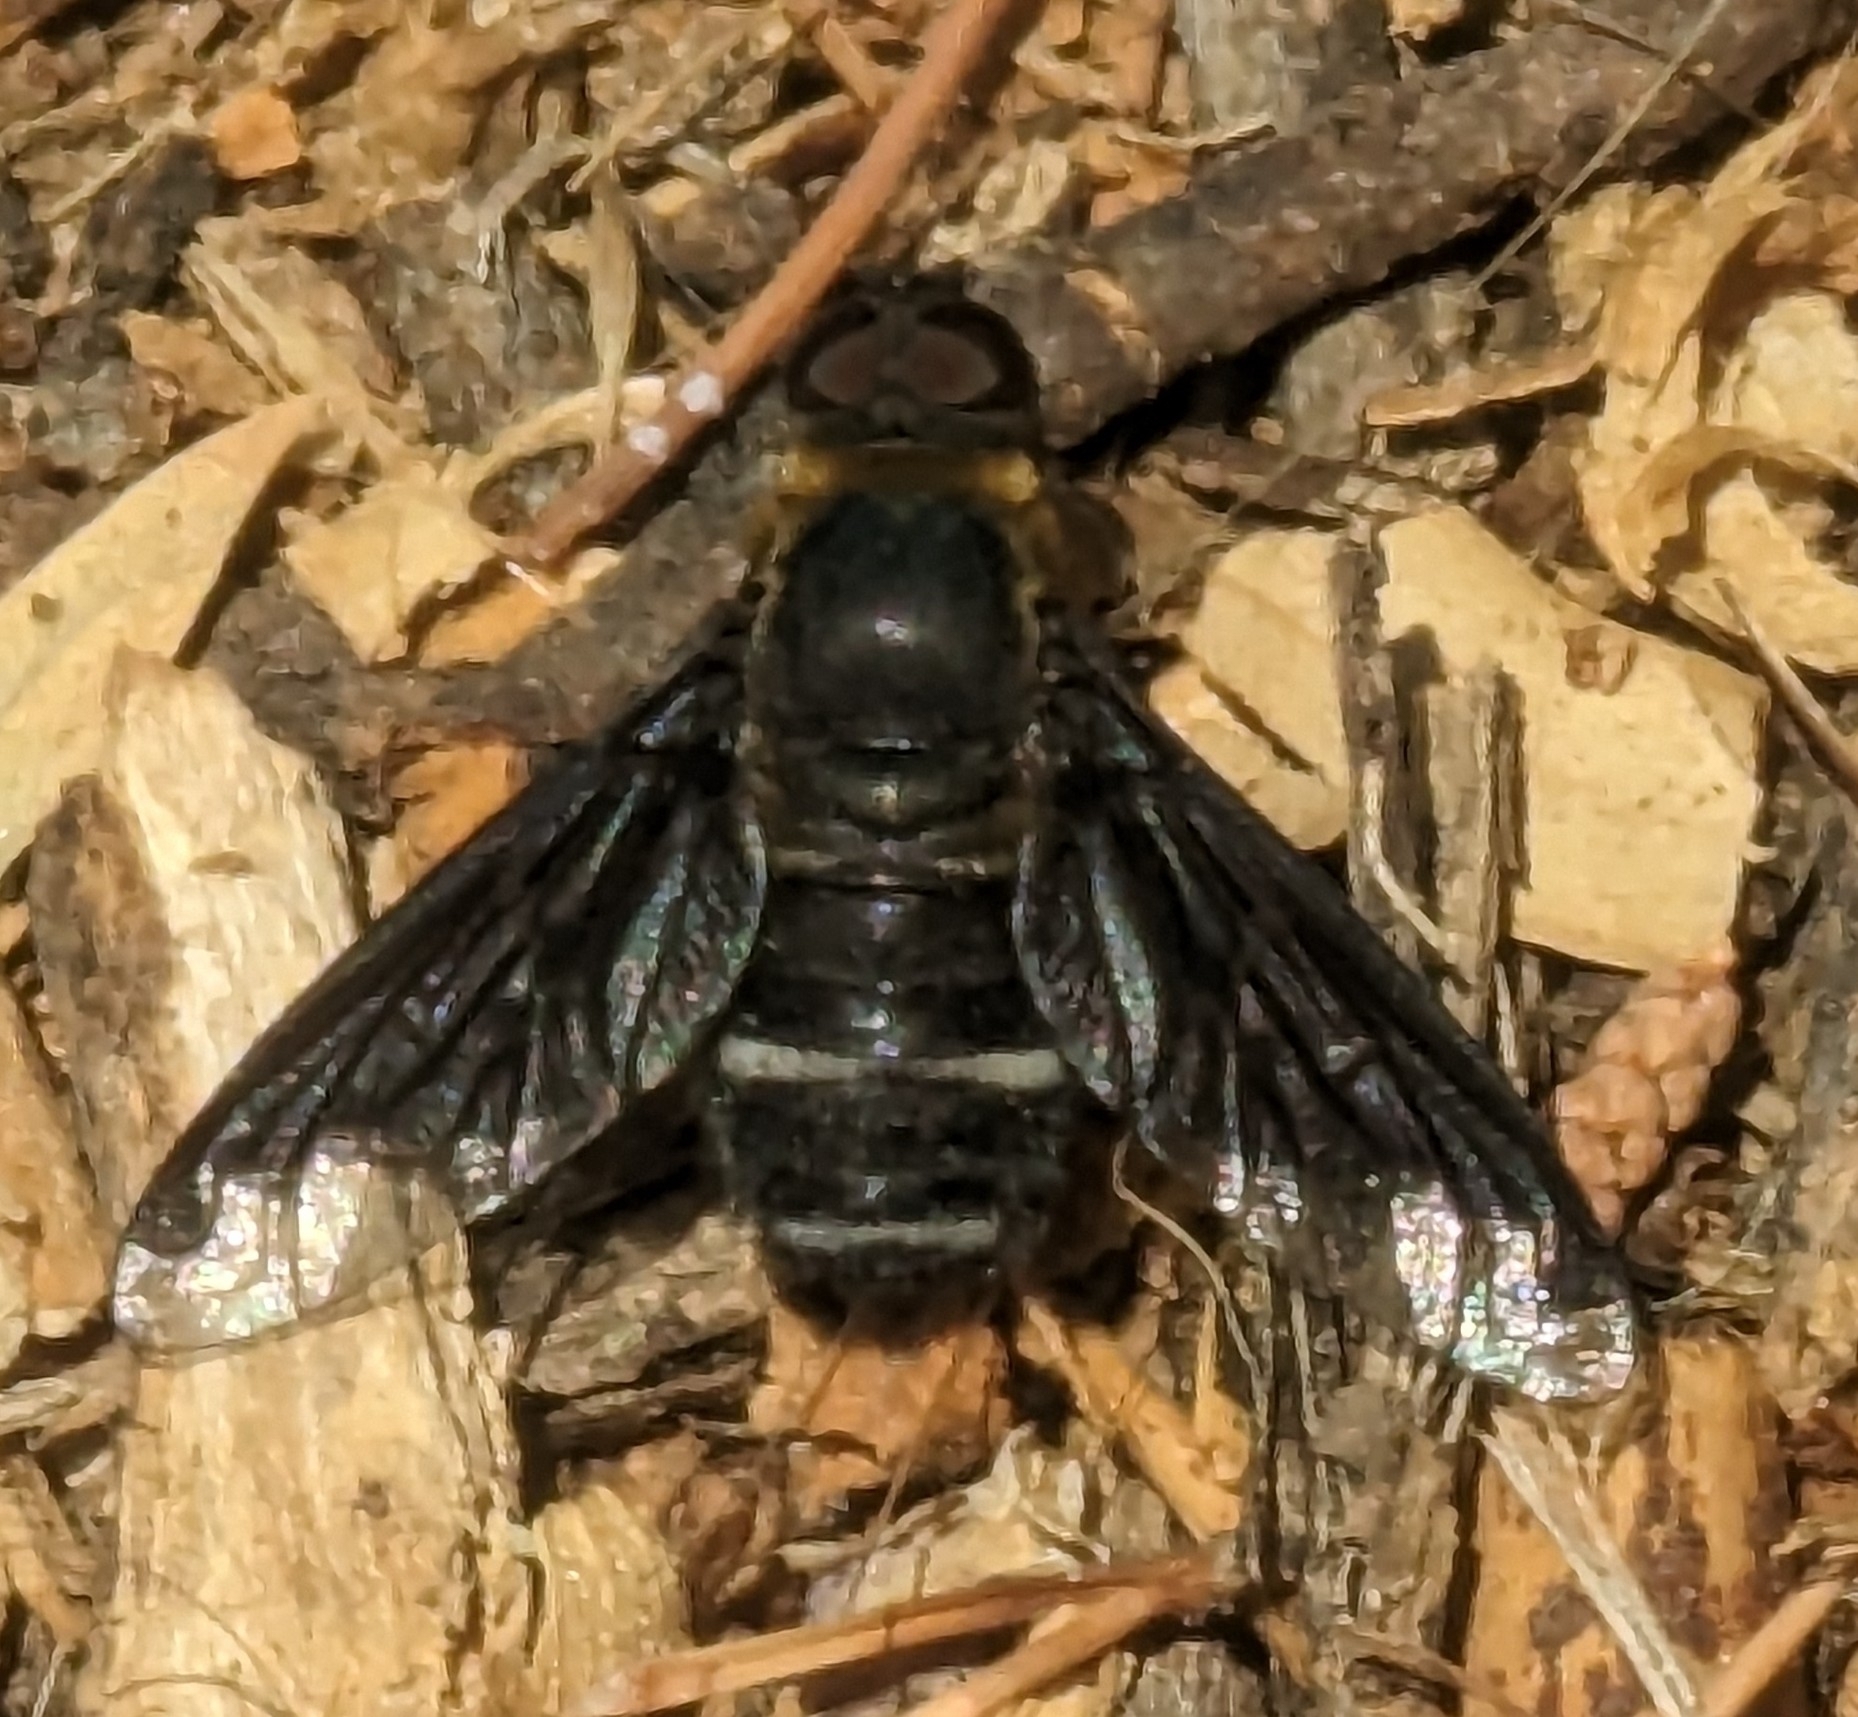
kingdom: Animalia
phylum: Arthropoda
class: Insecta
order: Diptera
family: Bombyliidae
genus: Hemipenthes
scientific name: Hemipenthes velutina
